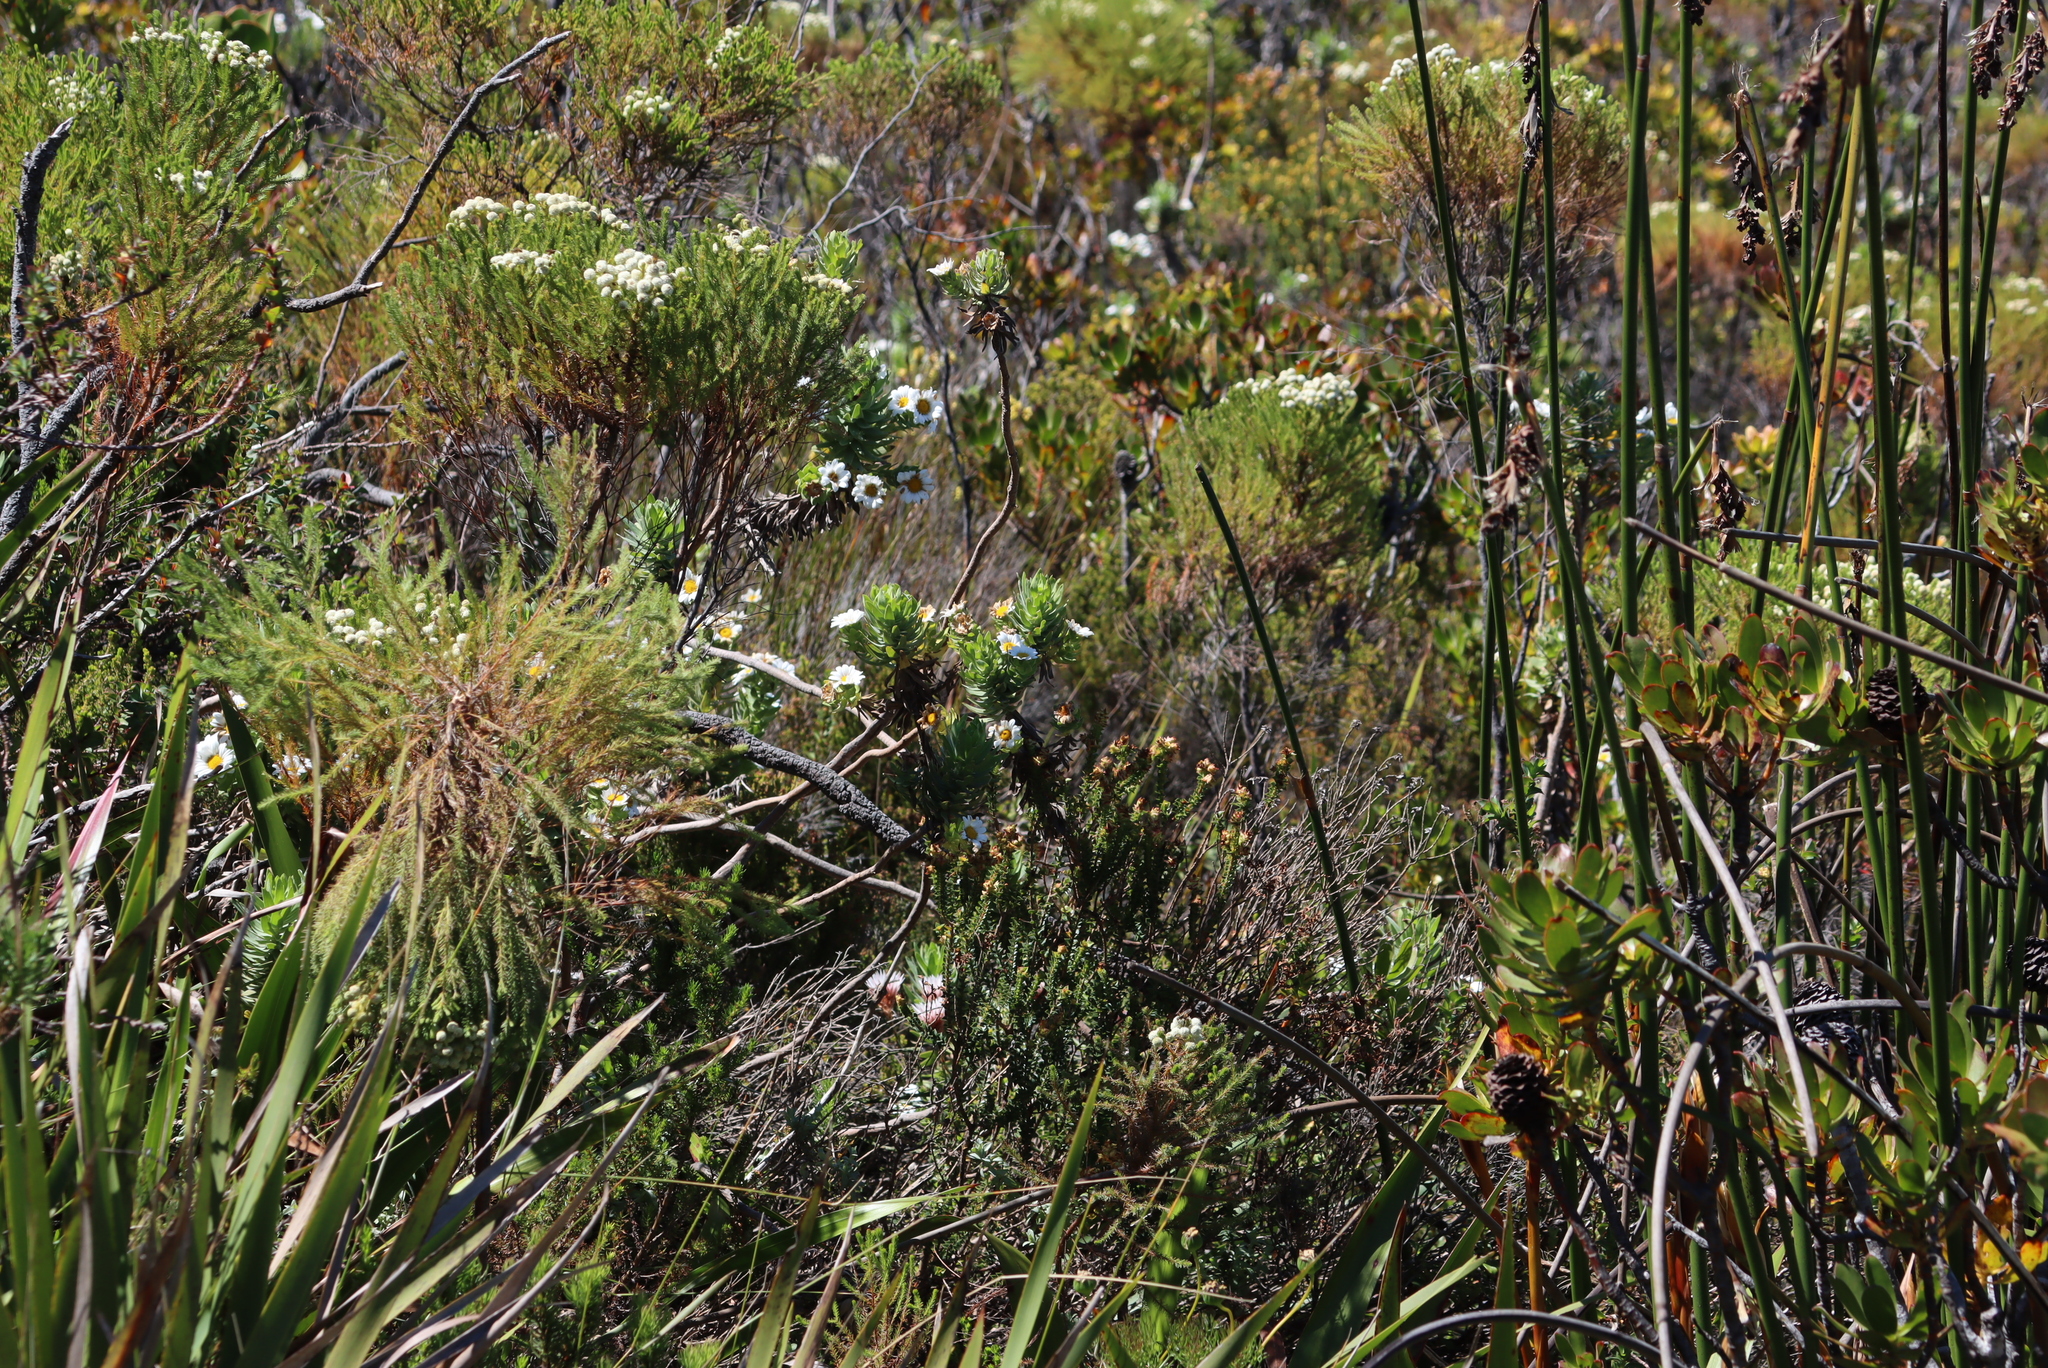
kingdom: Plantae
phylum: Tracheophyta
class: Magnoliopsida
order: Asterales
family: Asteraceae
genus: Osmitopsis
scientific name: Osmitopsis asteriscoides
